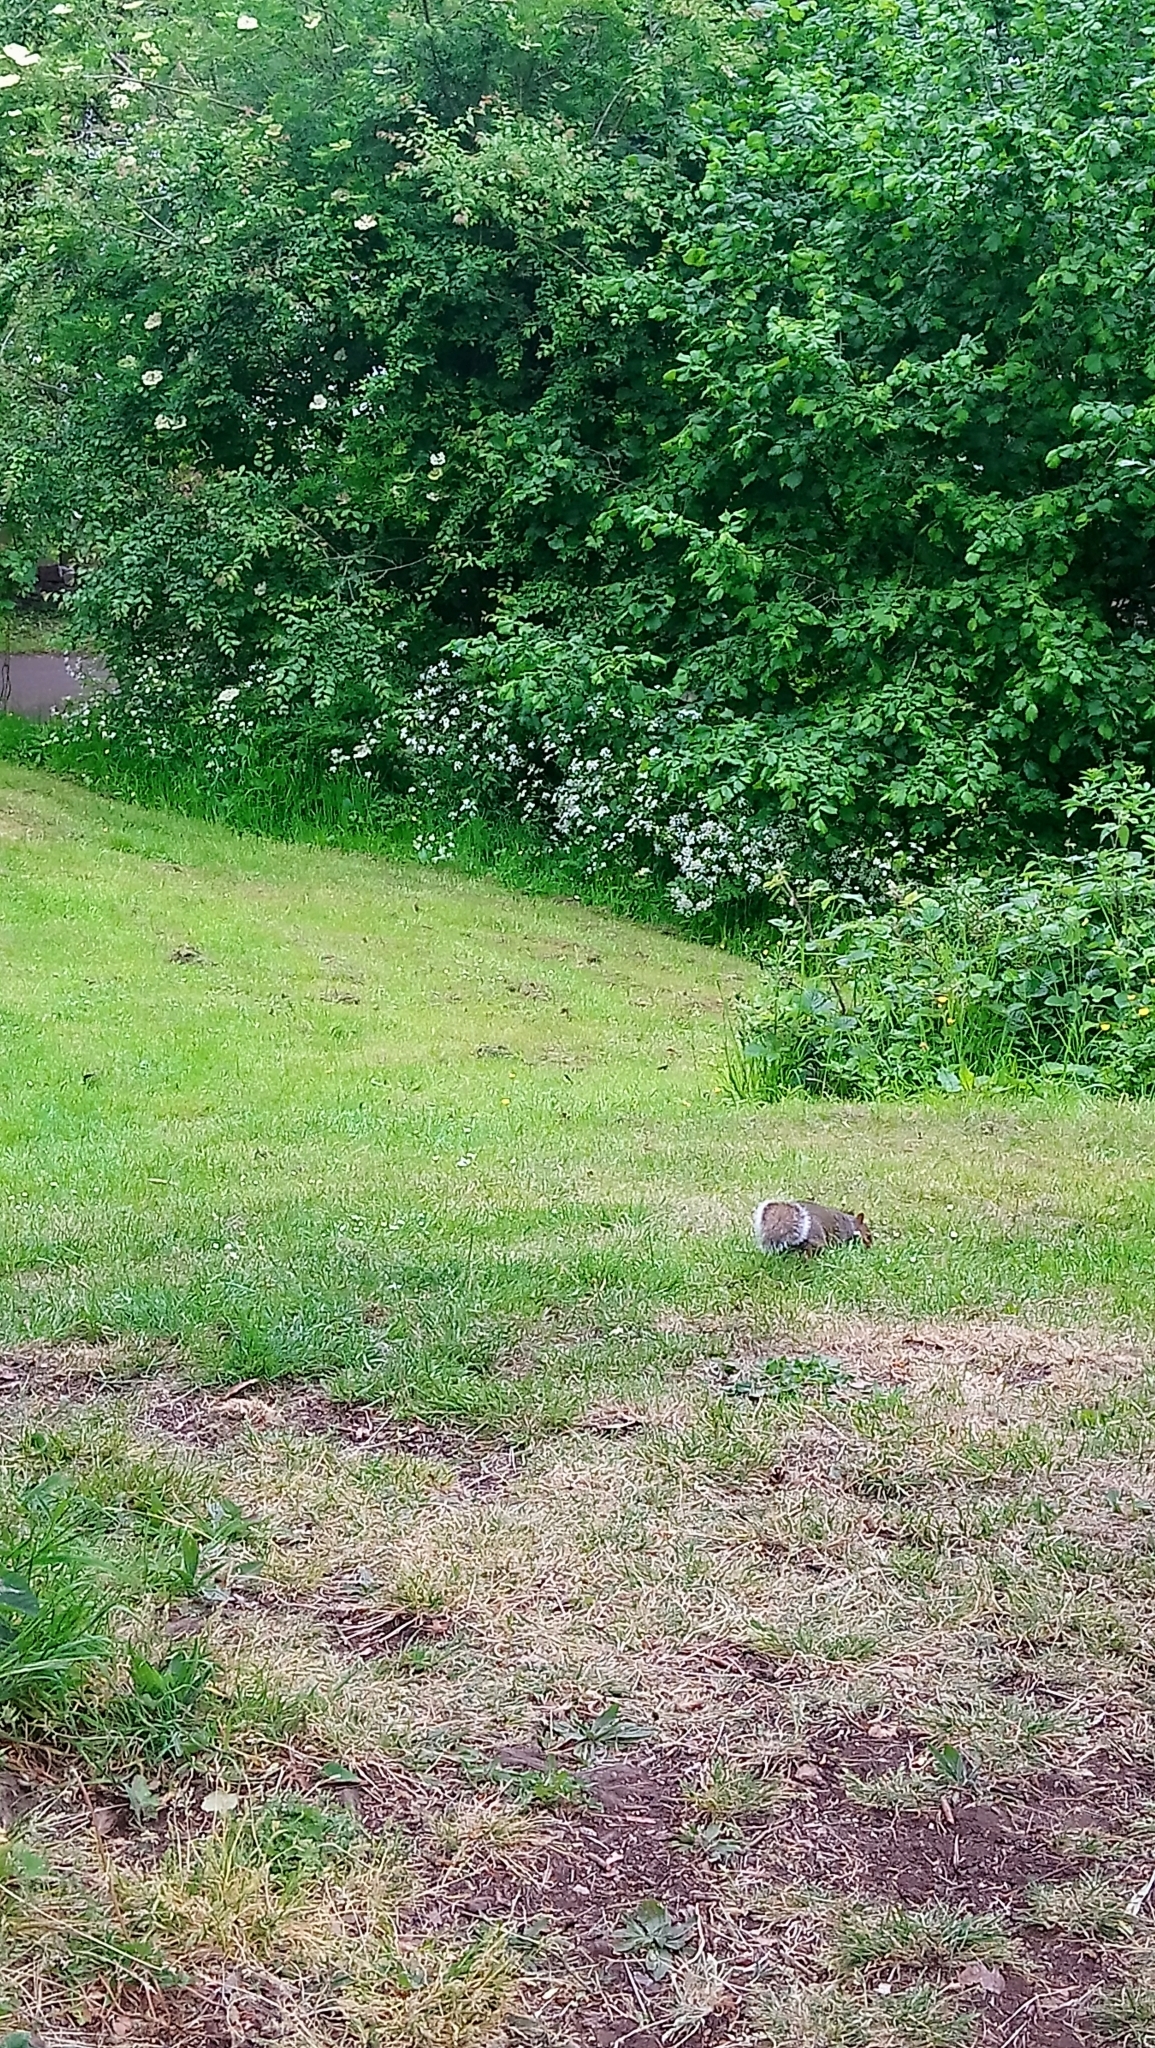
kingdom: Animalia
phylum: Chordata
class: Mammalia
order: Rodentia
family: Sciuridae
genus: Sciurus
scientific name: Sciurus carolinensis
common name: Eastern gray squirrel
